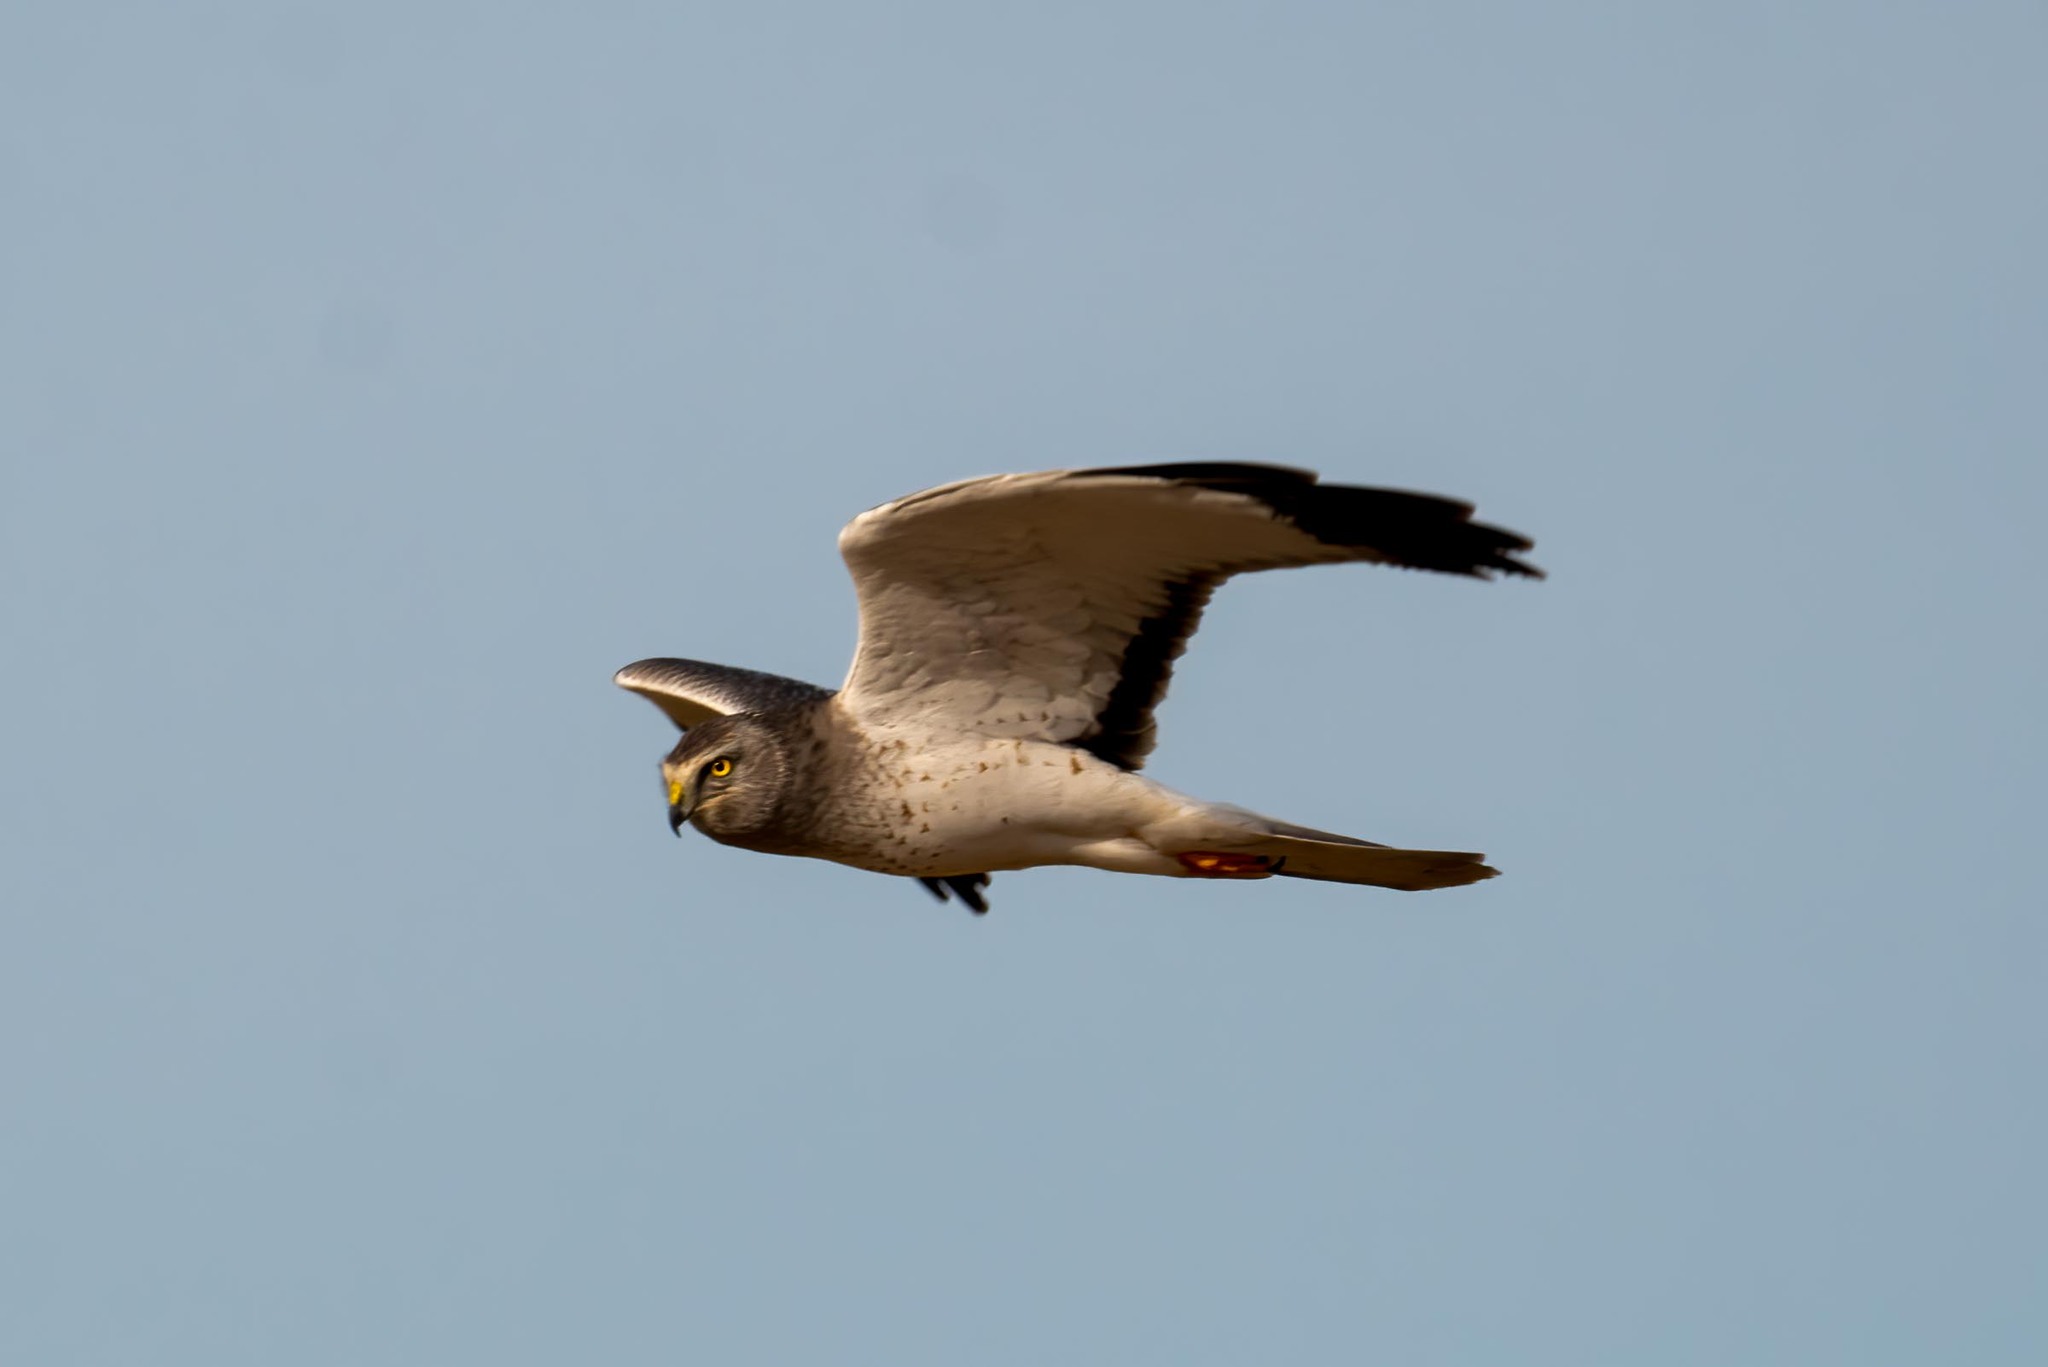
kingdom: Animalia
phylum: Chordata
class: Aves
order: Accipitriformes
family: Accipitridae
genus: Circus
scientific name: Circus cyaneus
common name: Hen harrier
